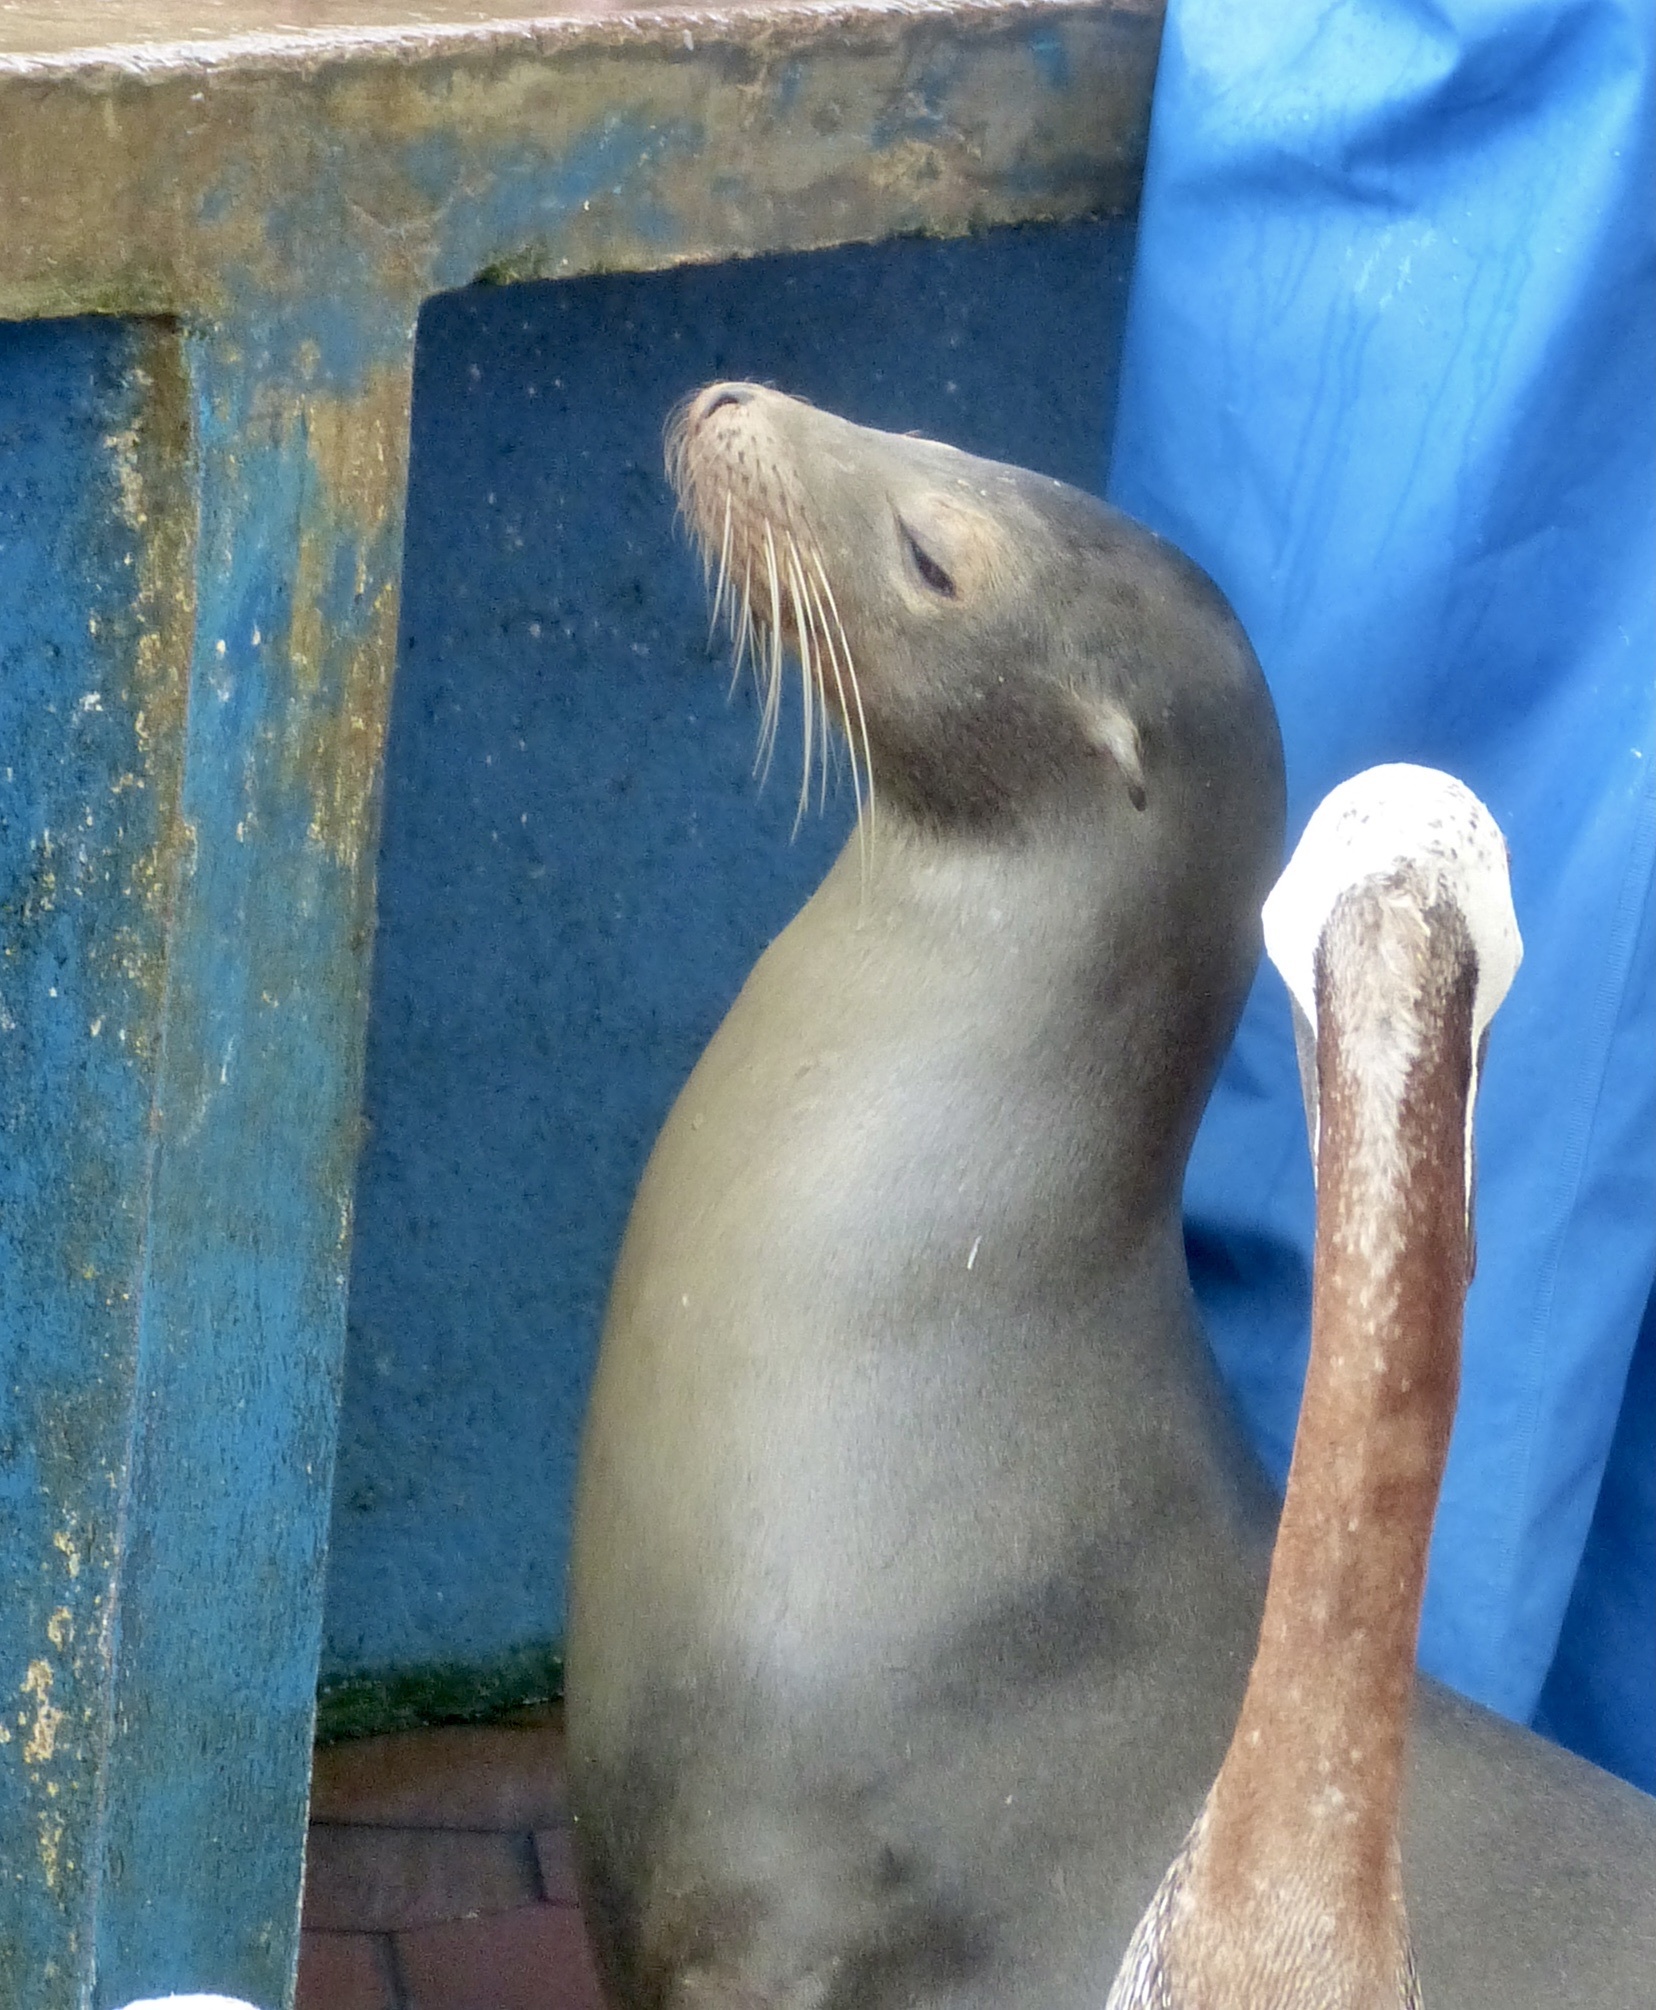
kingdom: Animalia
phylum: Chordata
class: Mammalia
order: Carnivora
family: Otariidae
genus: Zalophus
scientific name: Zalophus wollebaeki
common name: Galapagos sea lion
